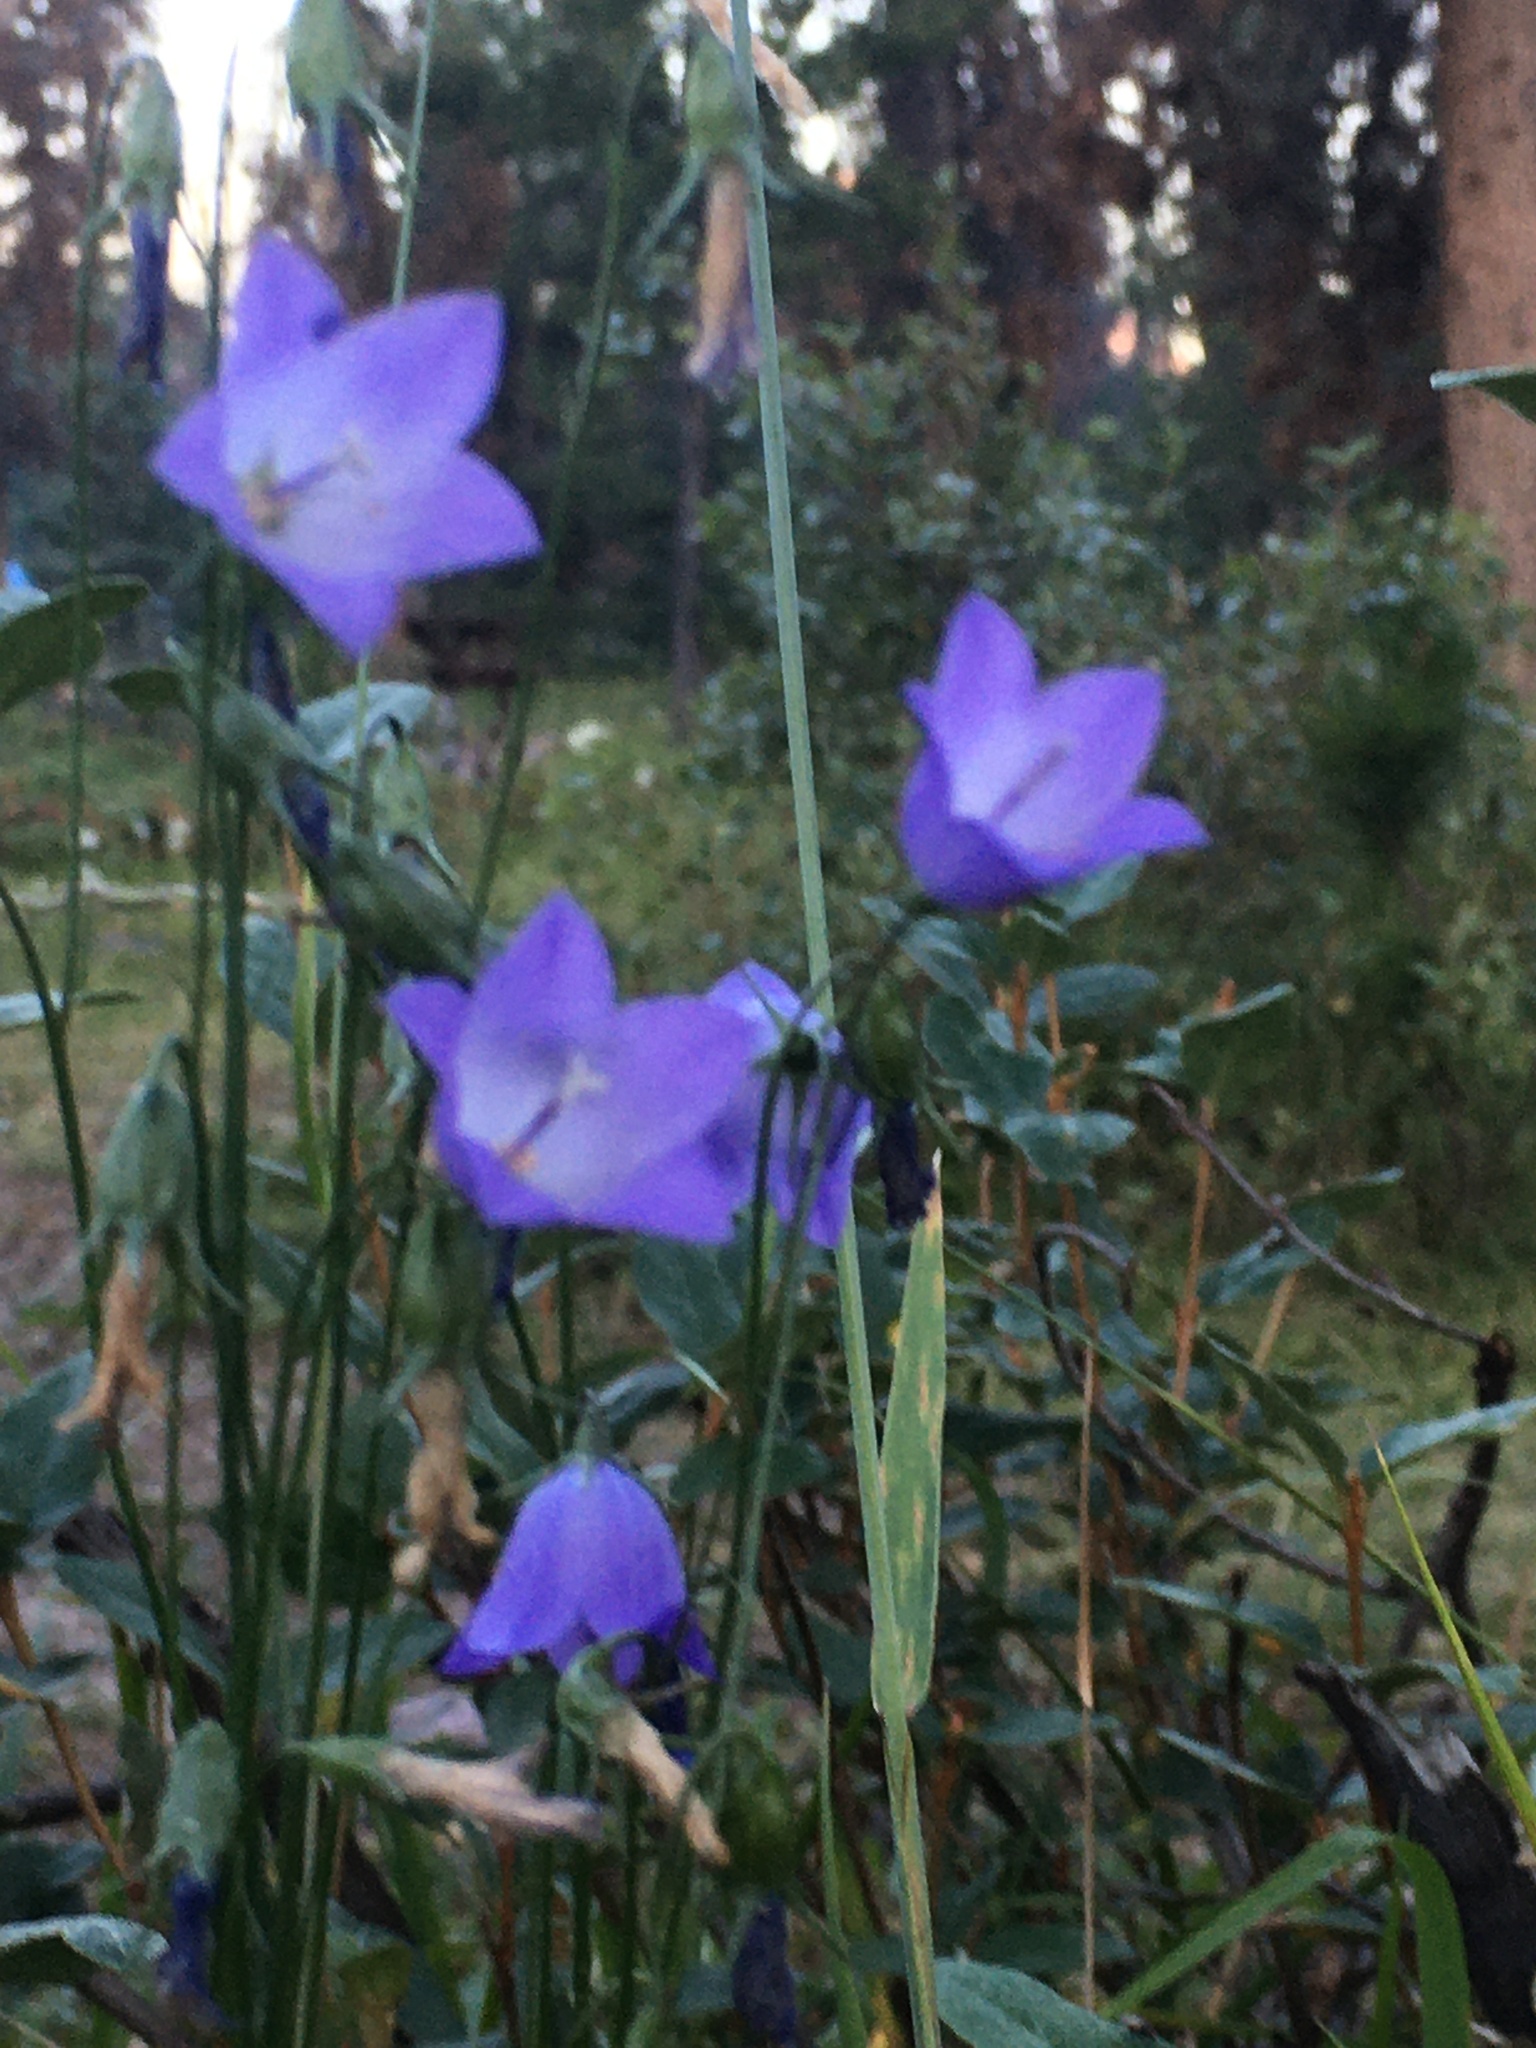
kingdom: Plantae
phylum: Tracheophyta
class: Magnoliopsida
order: Asterales
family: Campanulaceae
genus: Campanula
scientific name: Campanula alaskana
